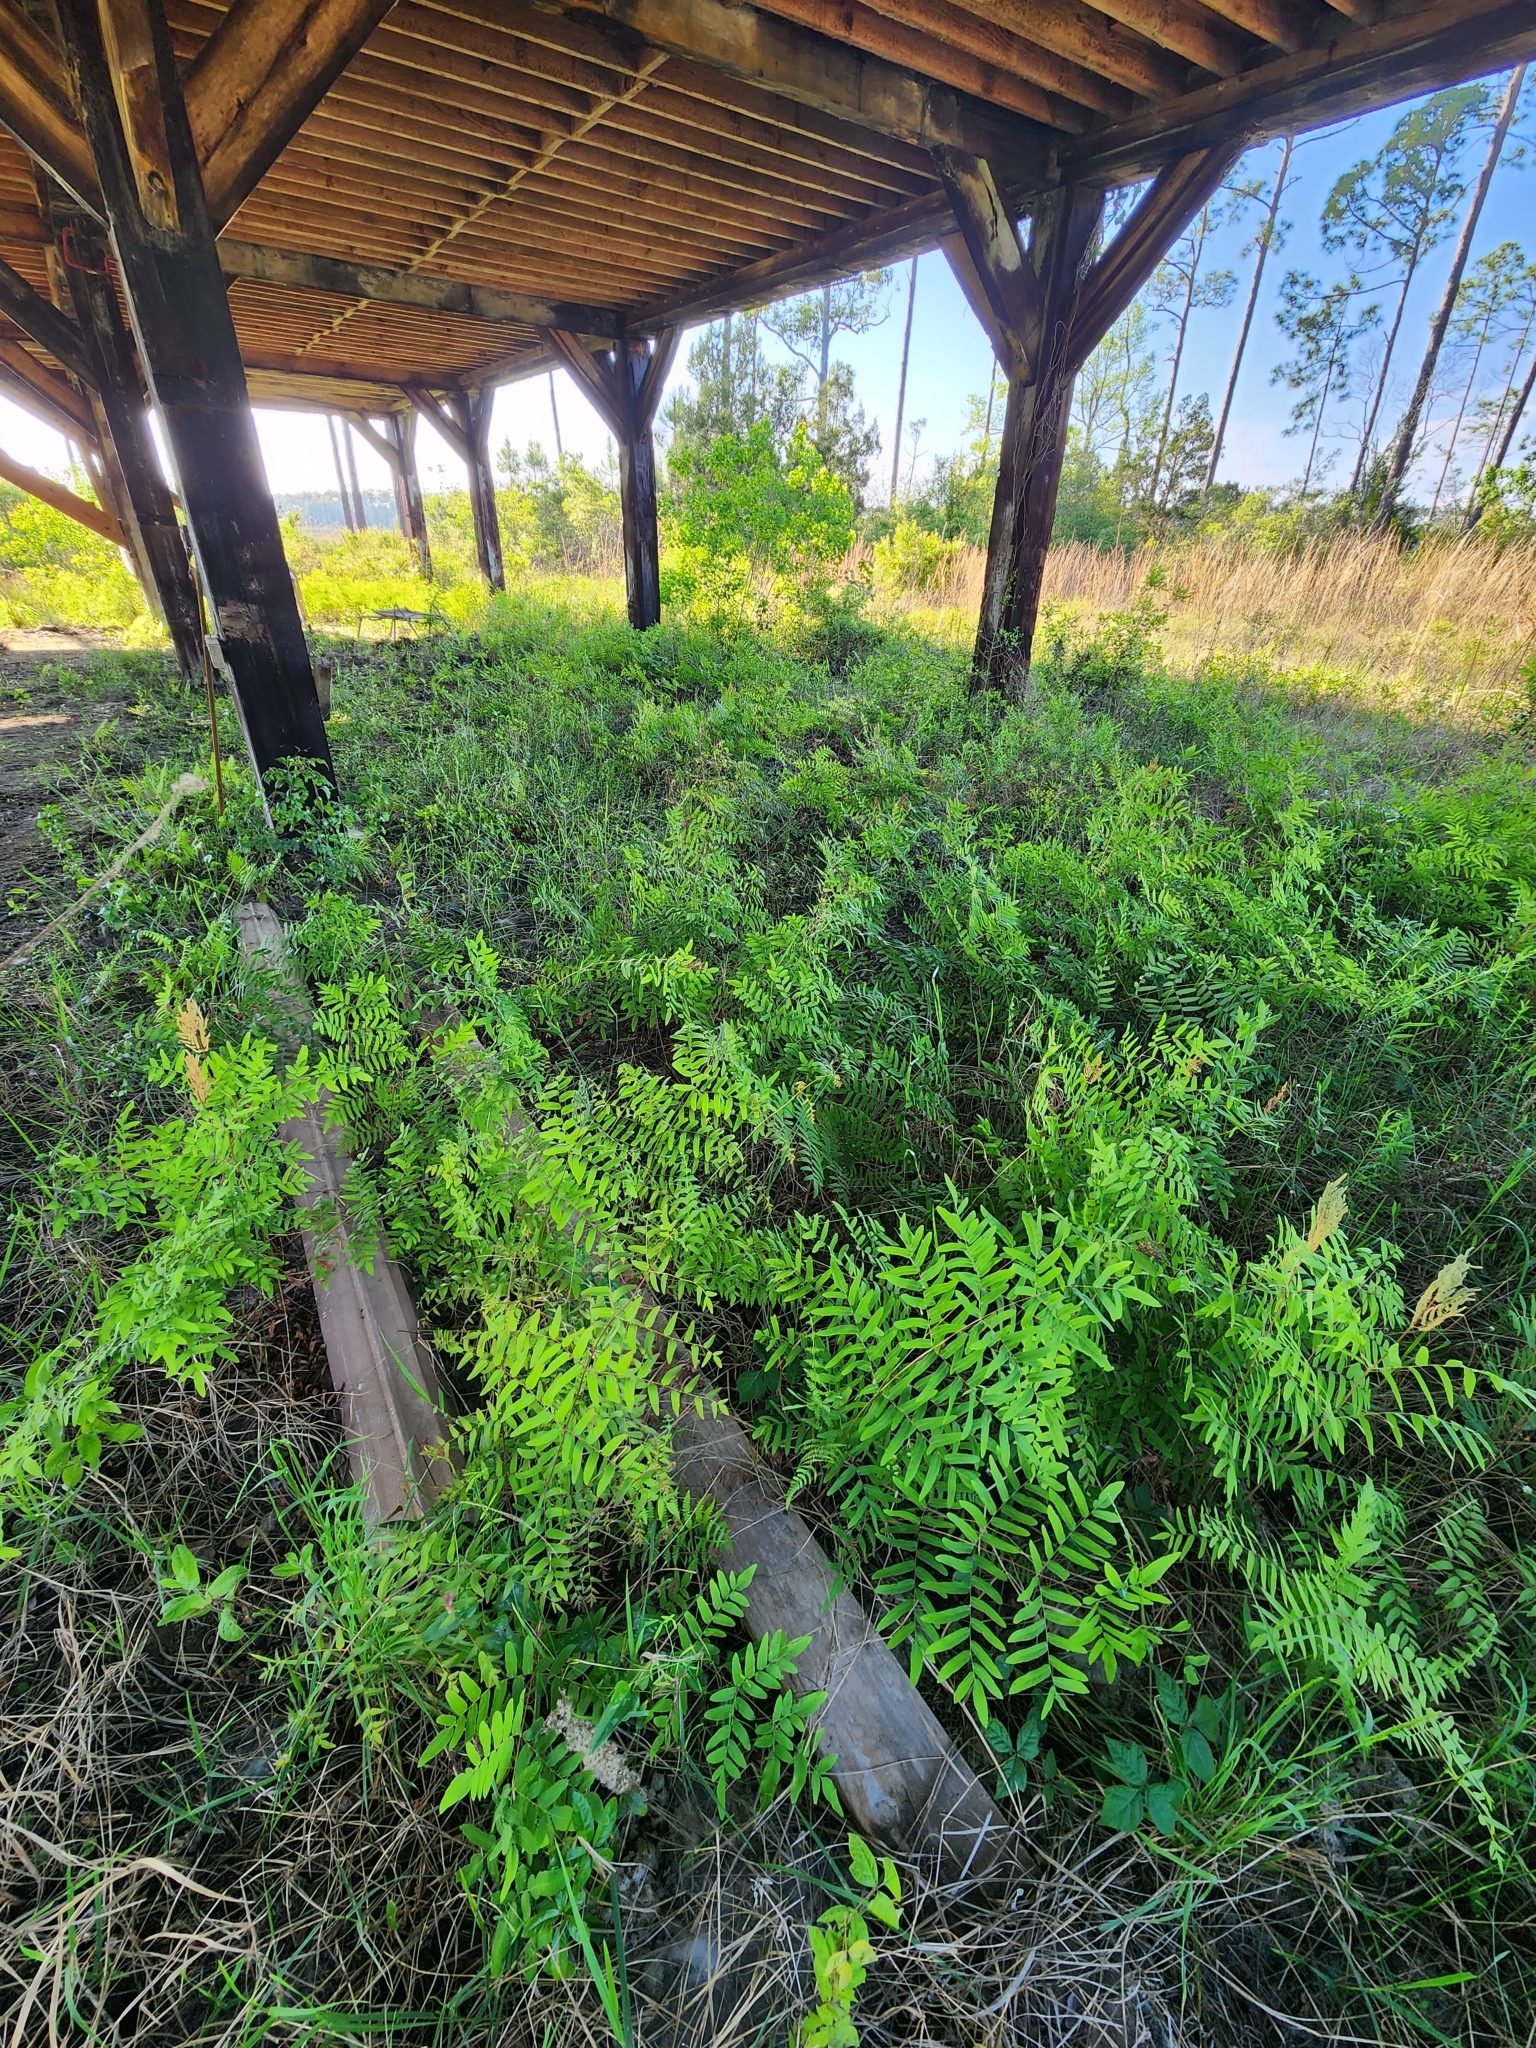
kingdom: Plantae
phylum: Tracheophyta
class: Polypodiopsida
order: Osmundales
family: Osmundaceae
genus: Osmunda
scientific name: Osmunda spectabilis
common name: American royal fern
